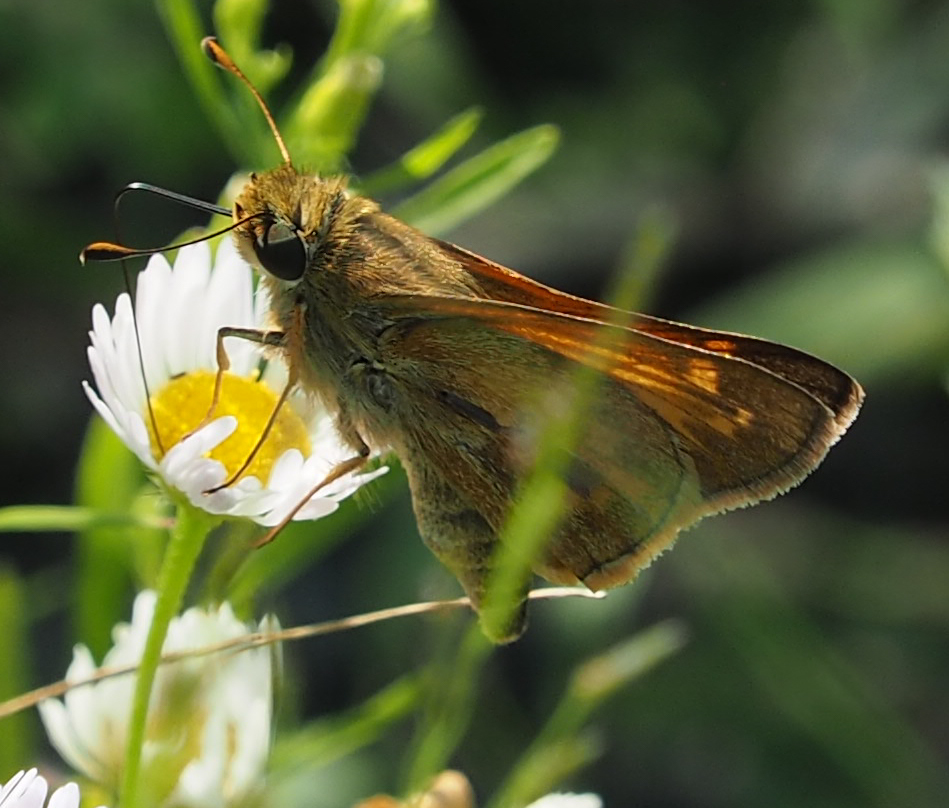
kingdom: Animalia
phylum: Arthropoda
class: Insecta
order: Lepidoptera
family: Hesperiidae
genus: Atalopedes
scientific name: Atalopedes
